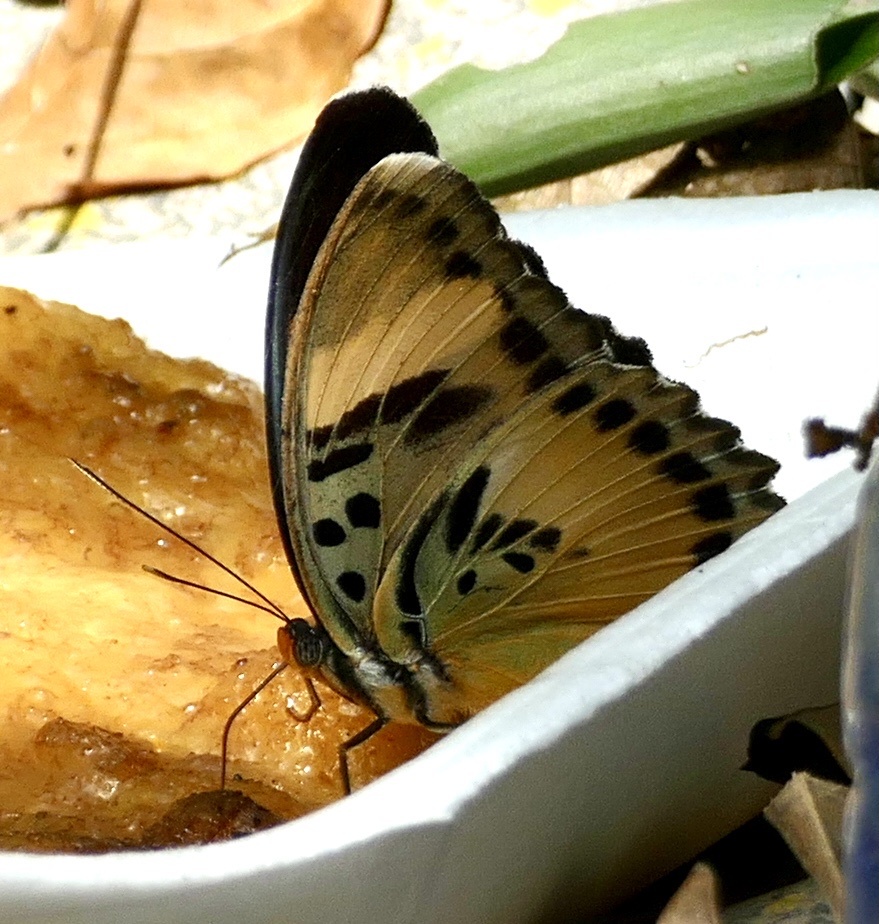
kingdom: Animalia
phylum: Arthropoda
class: Insecta
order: Lepidoptera
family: Nymphalidae
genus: Euphaedra
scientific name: Euphaedra ceres
